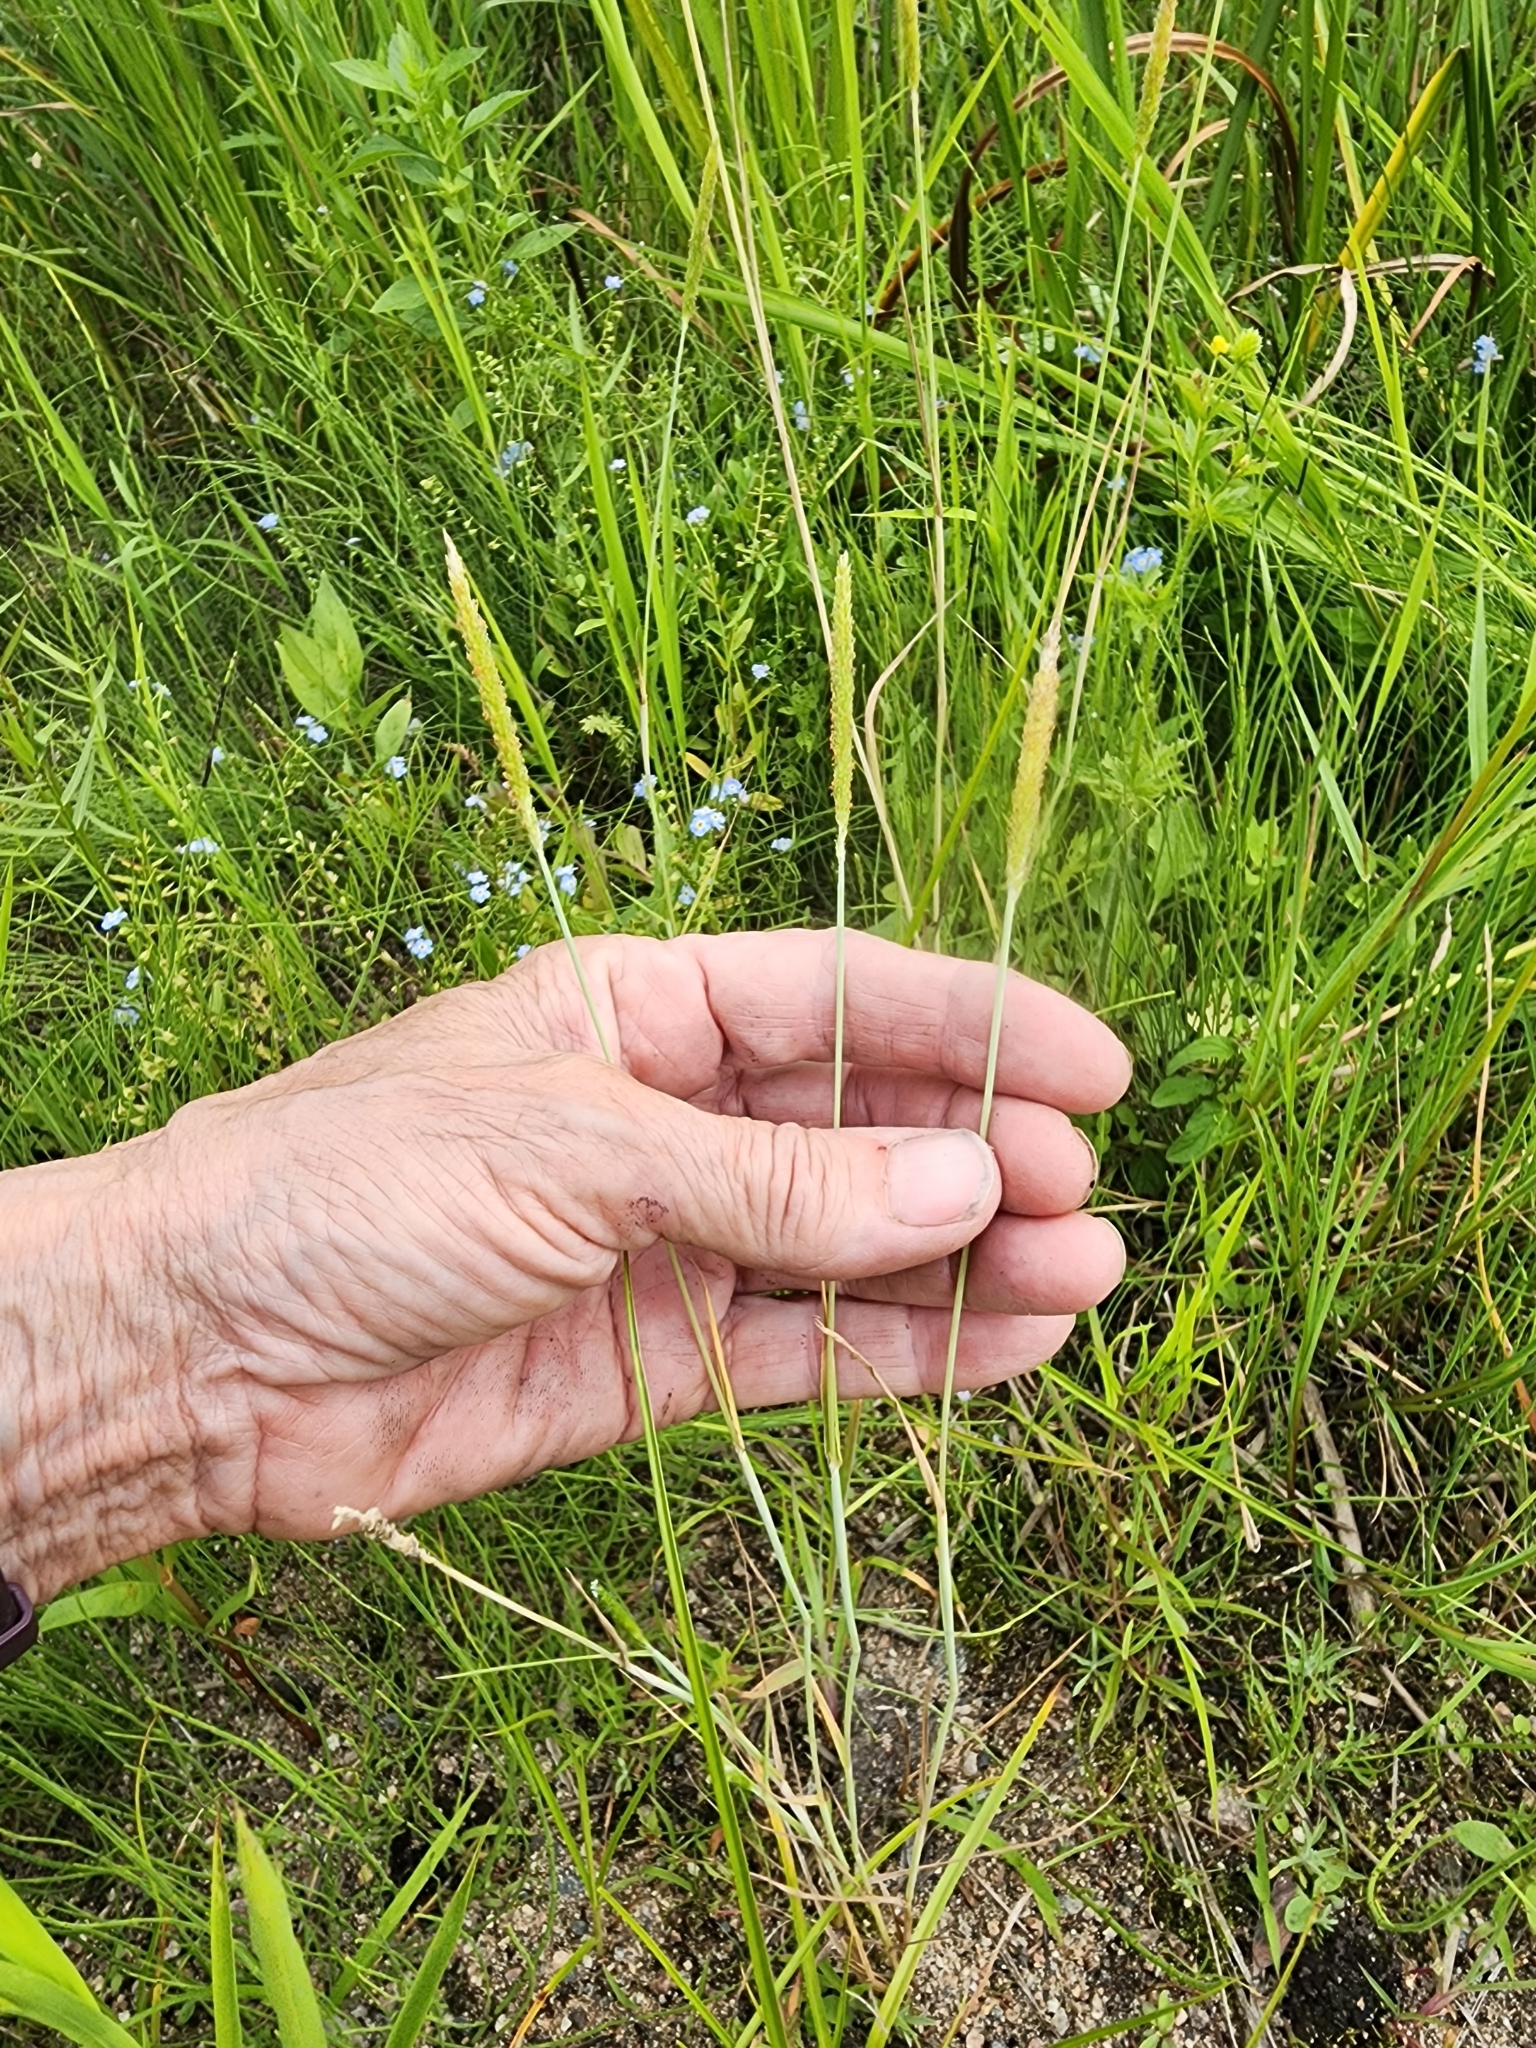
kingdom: Plantae
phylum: Tracheophyta
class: Liliopsida
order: Poales
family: Poaceae
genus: Alopecurus
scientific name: Alopecurus aequalis
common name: Orange foxtail
